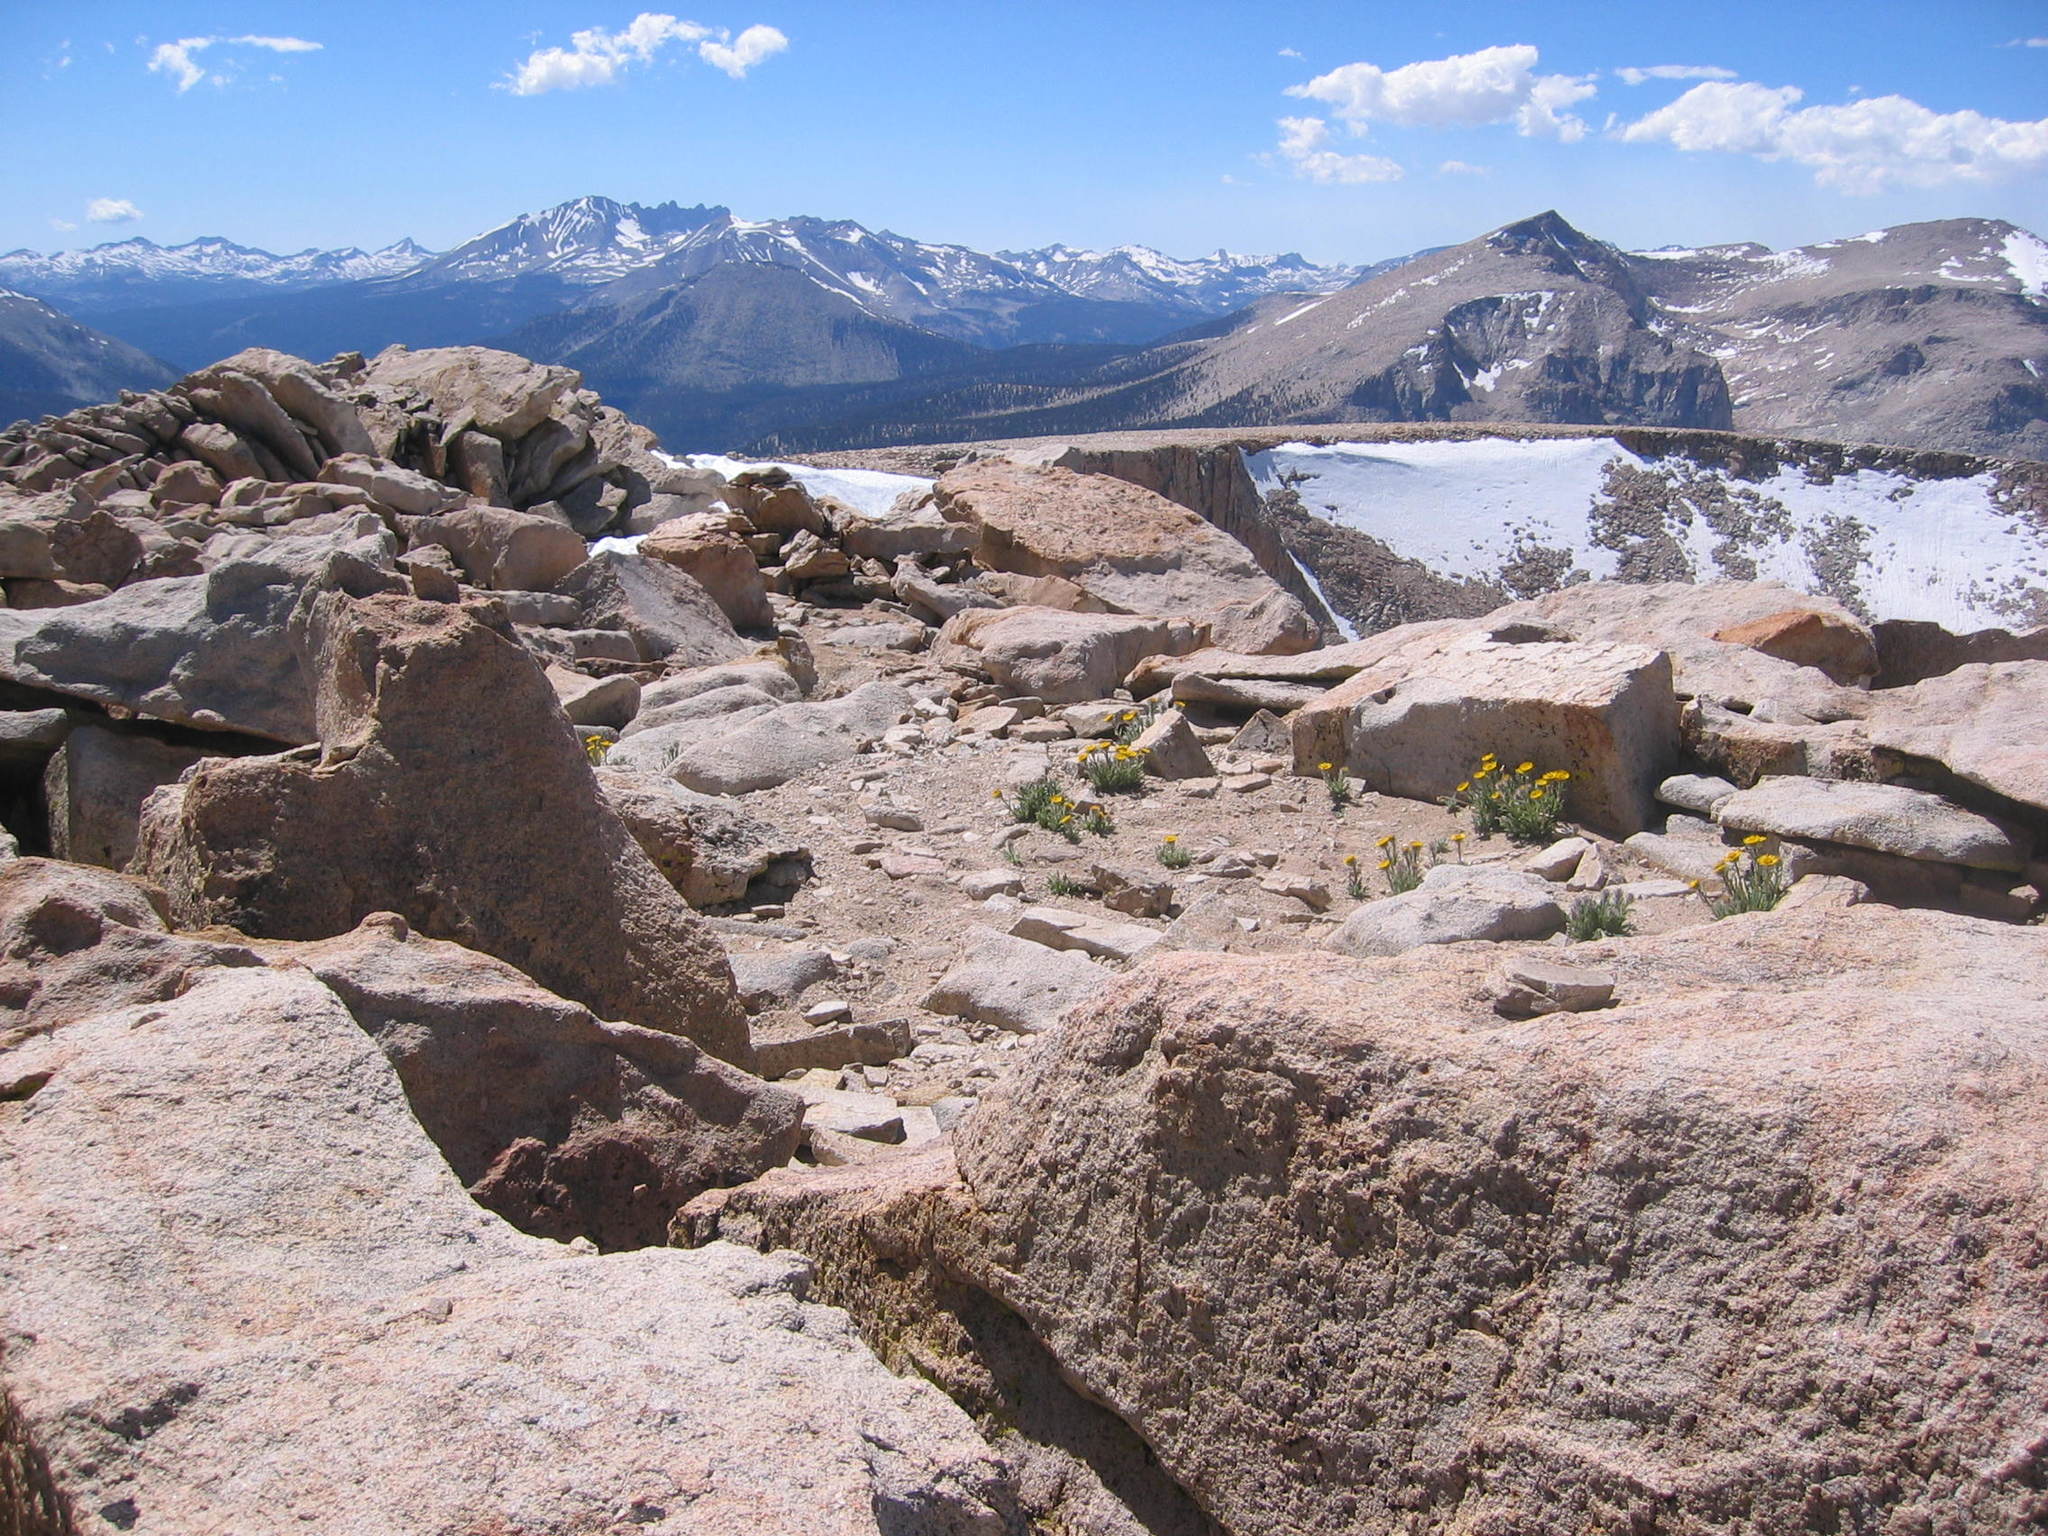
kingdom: Plantae
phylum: Tracheophyta
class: Magnoliopsida
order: Asterales
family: Asteraceae
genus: Hulsea
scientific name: Hulsea algida
